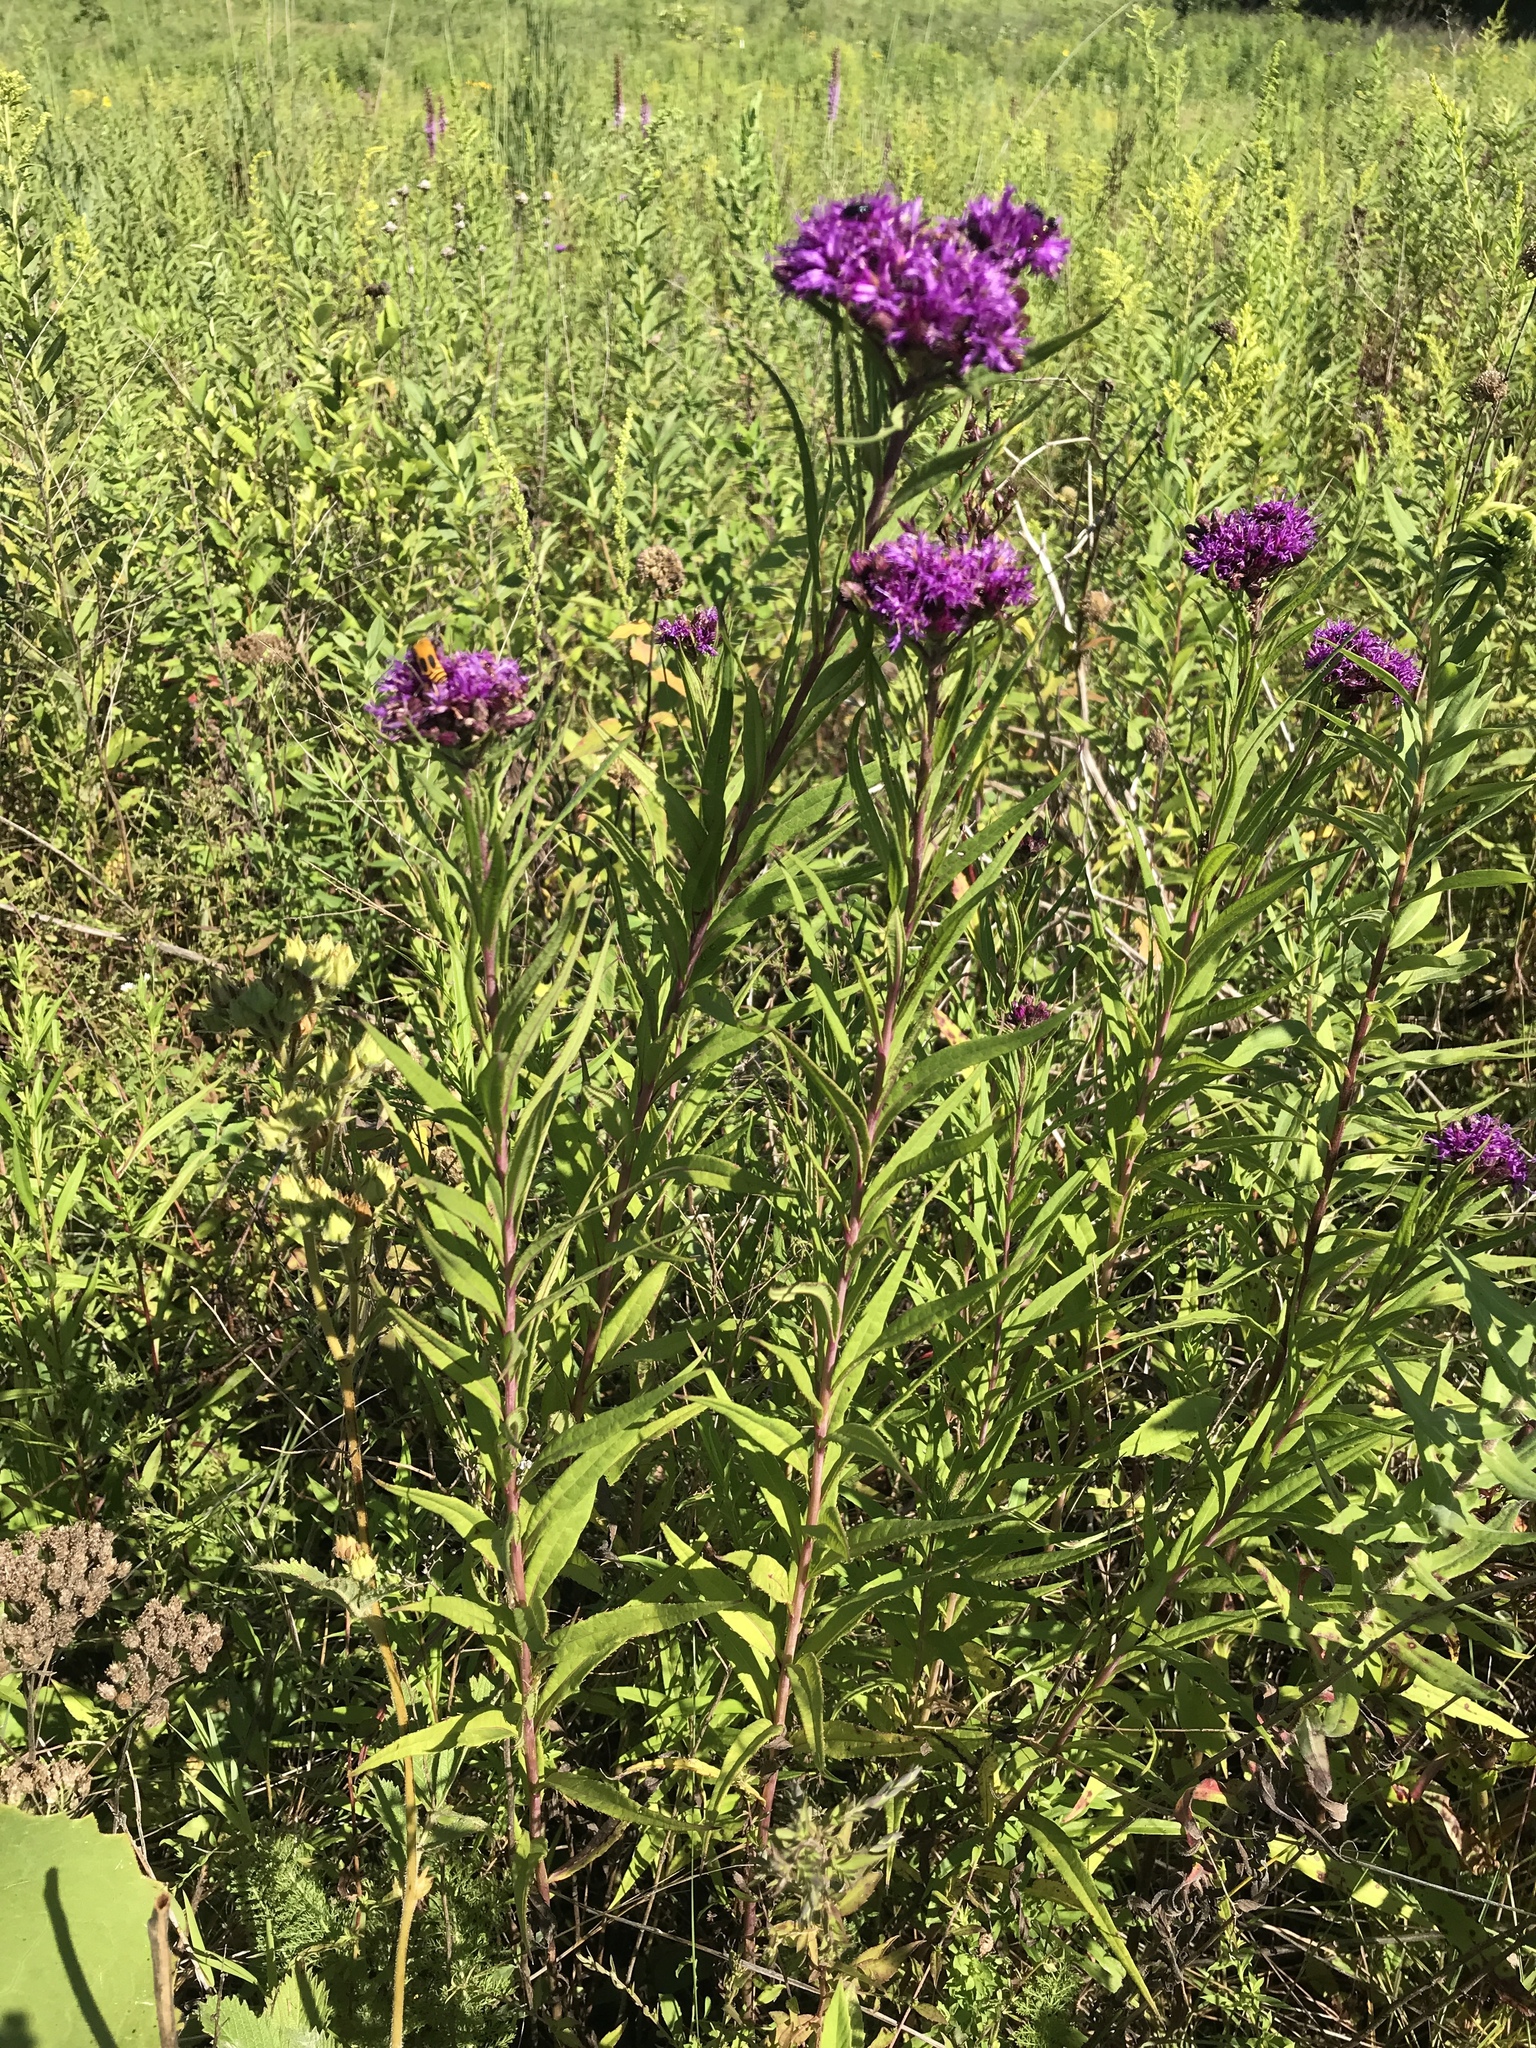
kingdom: Plantae
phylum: Tracheophyta
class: Magnoliopsida
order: Asterales
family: Asteraceae
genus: Vernonia
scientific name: Vernonia fasciculata
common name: Fascicled ironweed
